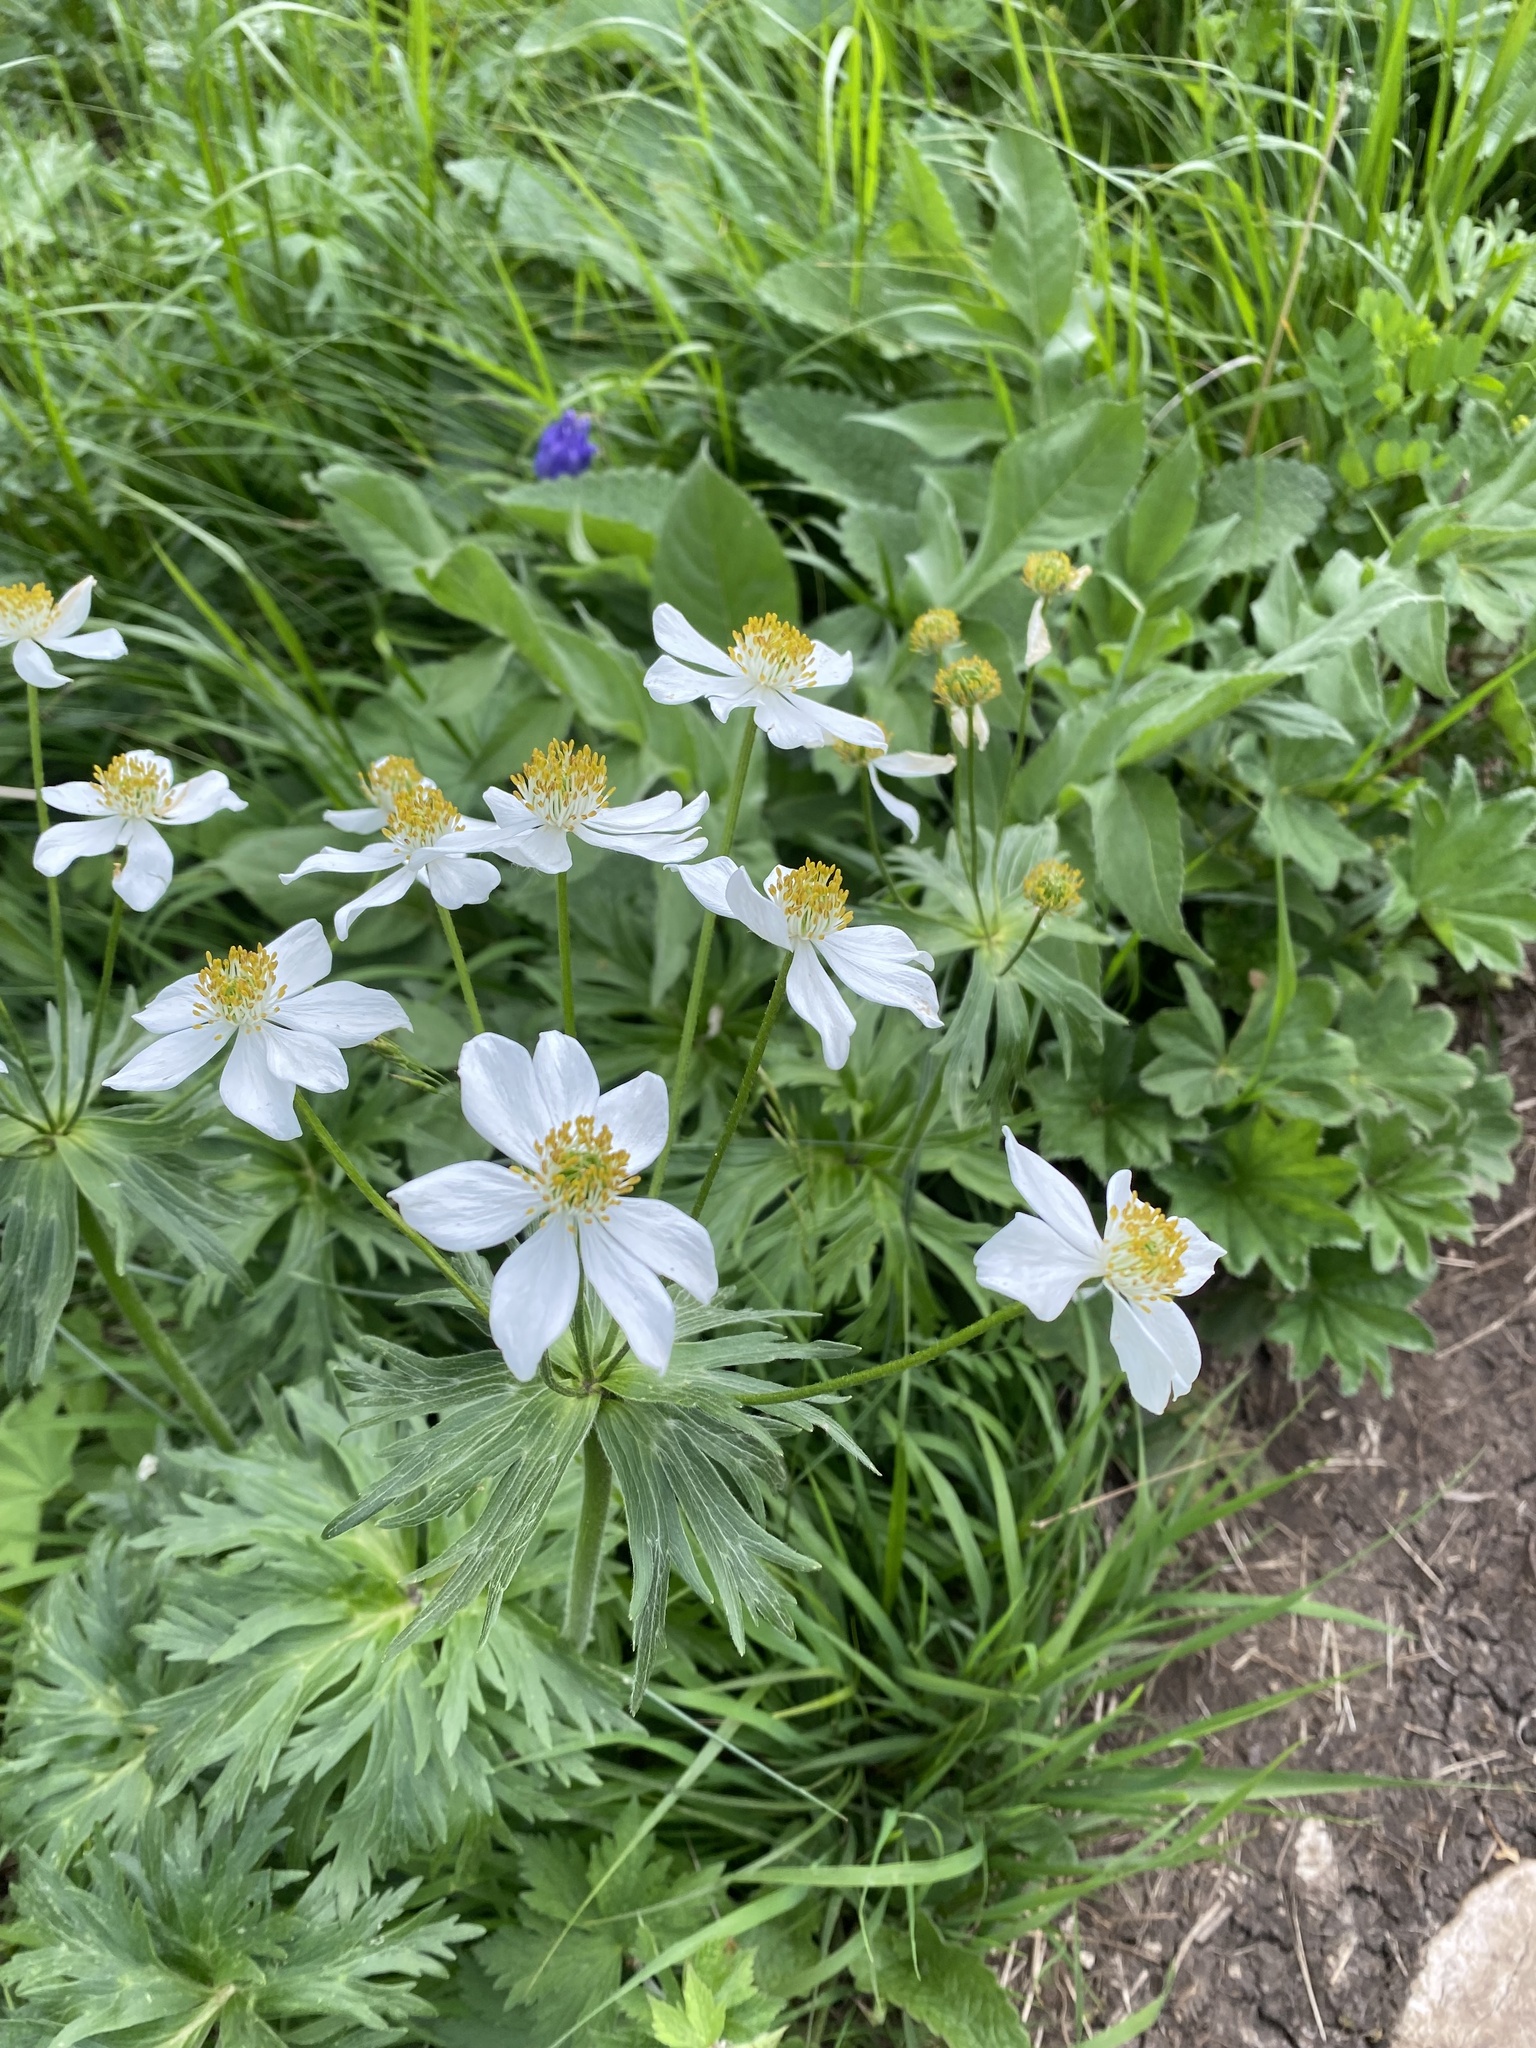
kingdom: Plantae
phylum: Tracheophyta
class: Magnoliopsida
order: Ranunculales
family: Ranunculaceae
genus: Anemonastrum
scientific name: Anemonastrum narcissiflorum
